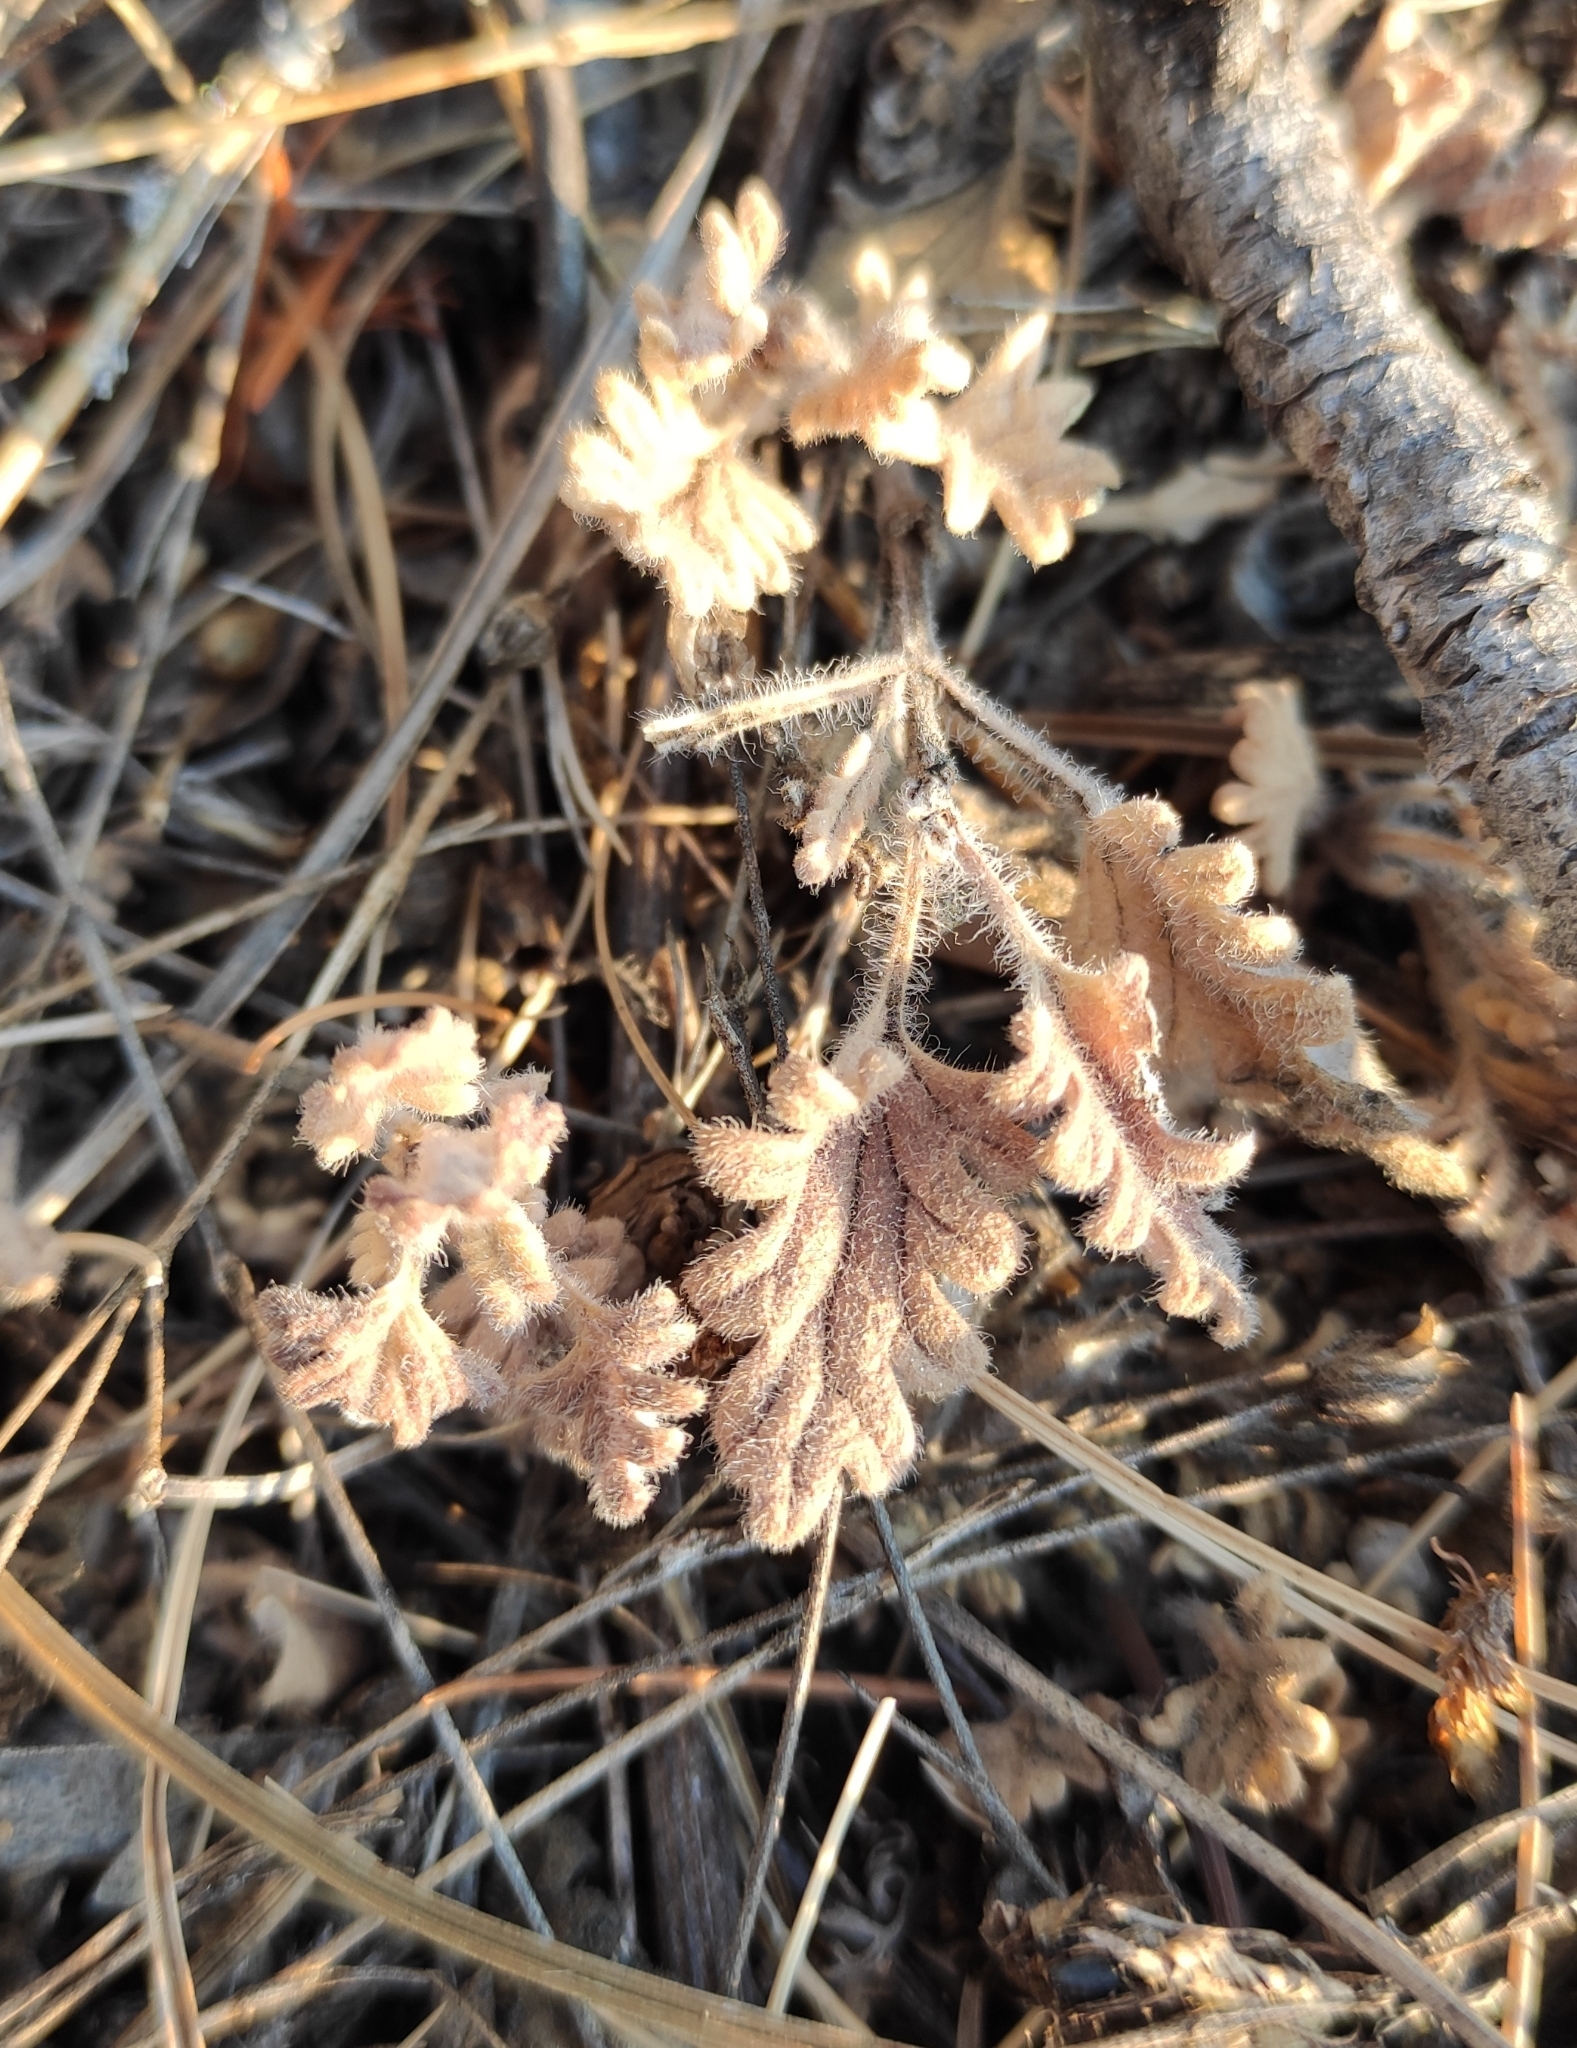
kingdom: Plantae
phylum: Tracheophyta
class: Magnoliopsida
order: Lamiales
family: Lamiaceae
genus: Dracocephalum
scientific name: Dracocephalum pinnatum
